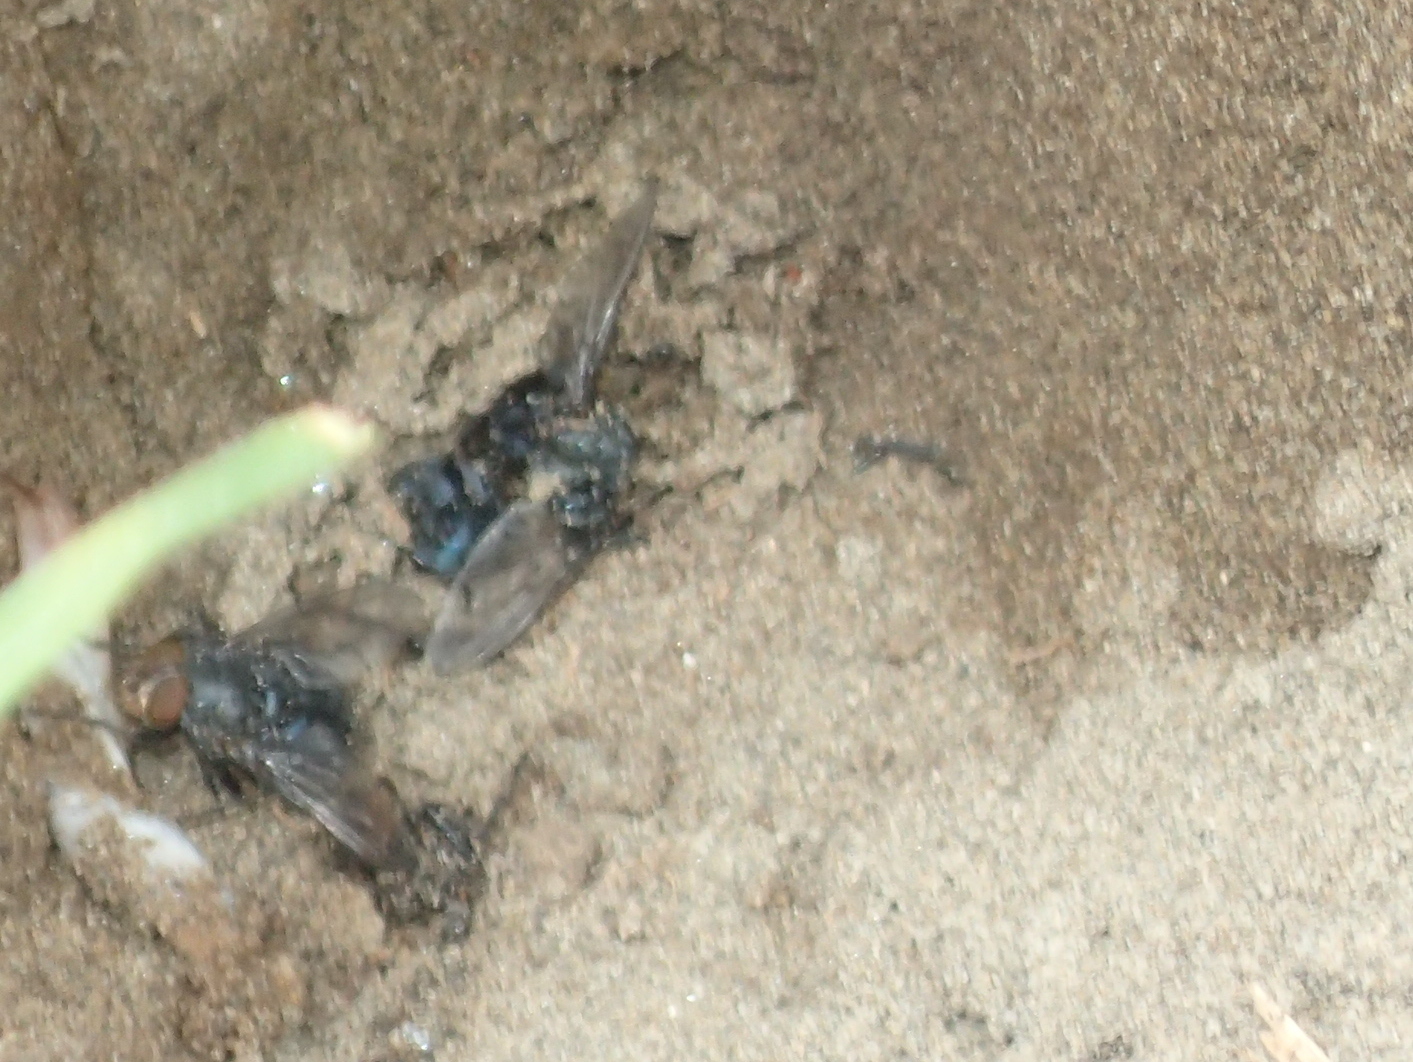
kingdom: Animalia
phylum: Arthropoda
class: Insecta
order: Diptera
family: Calliphoridae
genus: Calliphora
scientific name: Calliphora vicina
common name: Common blow flie
